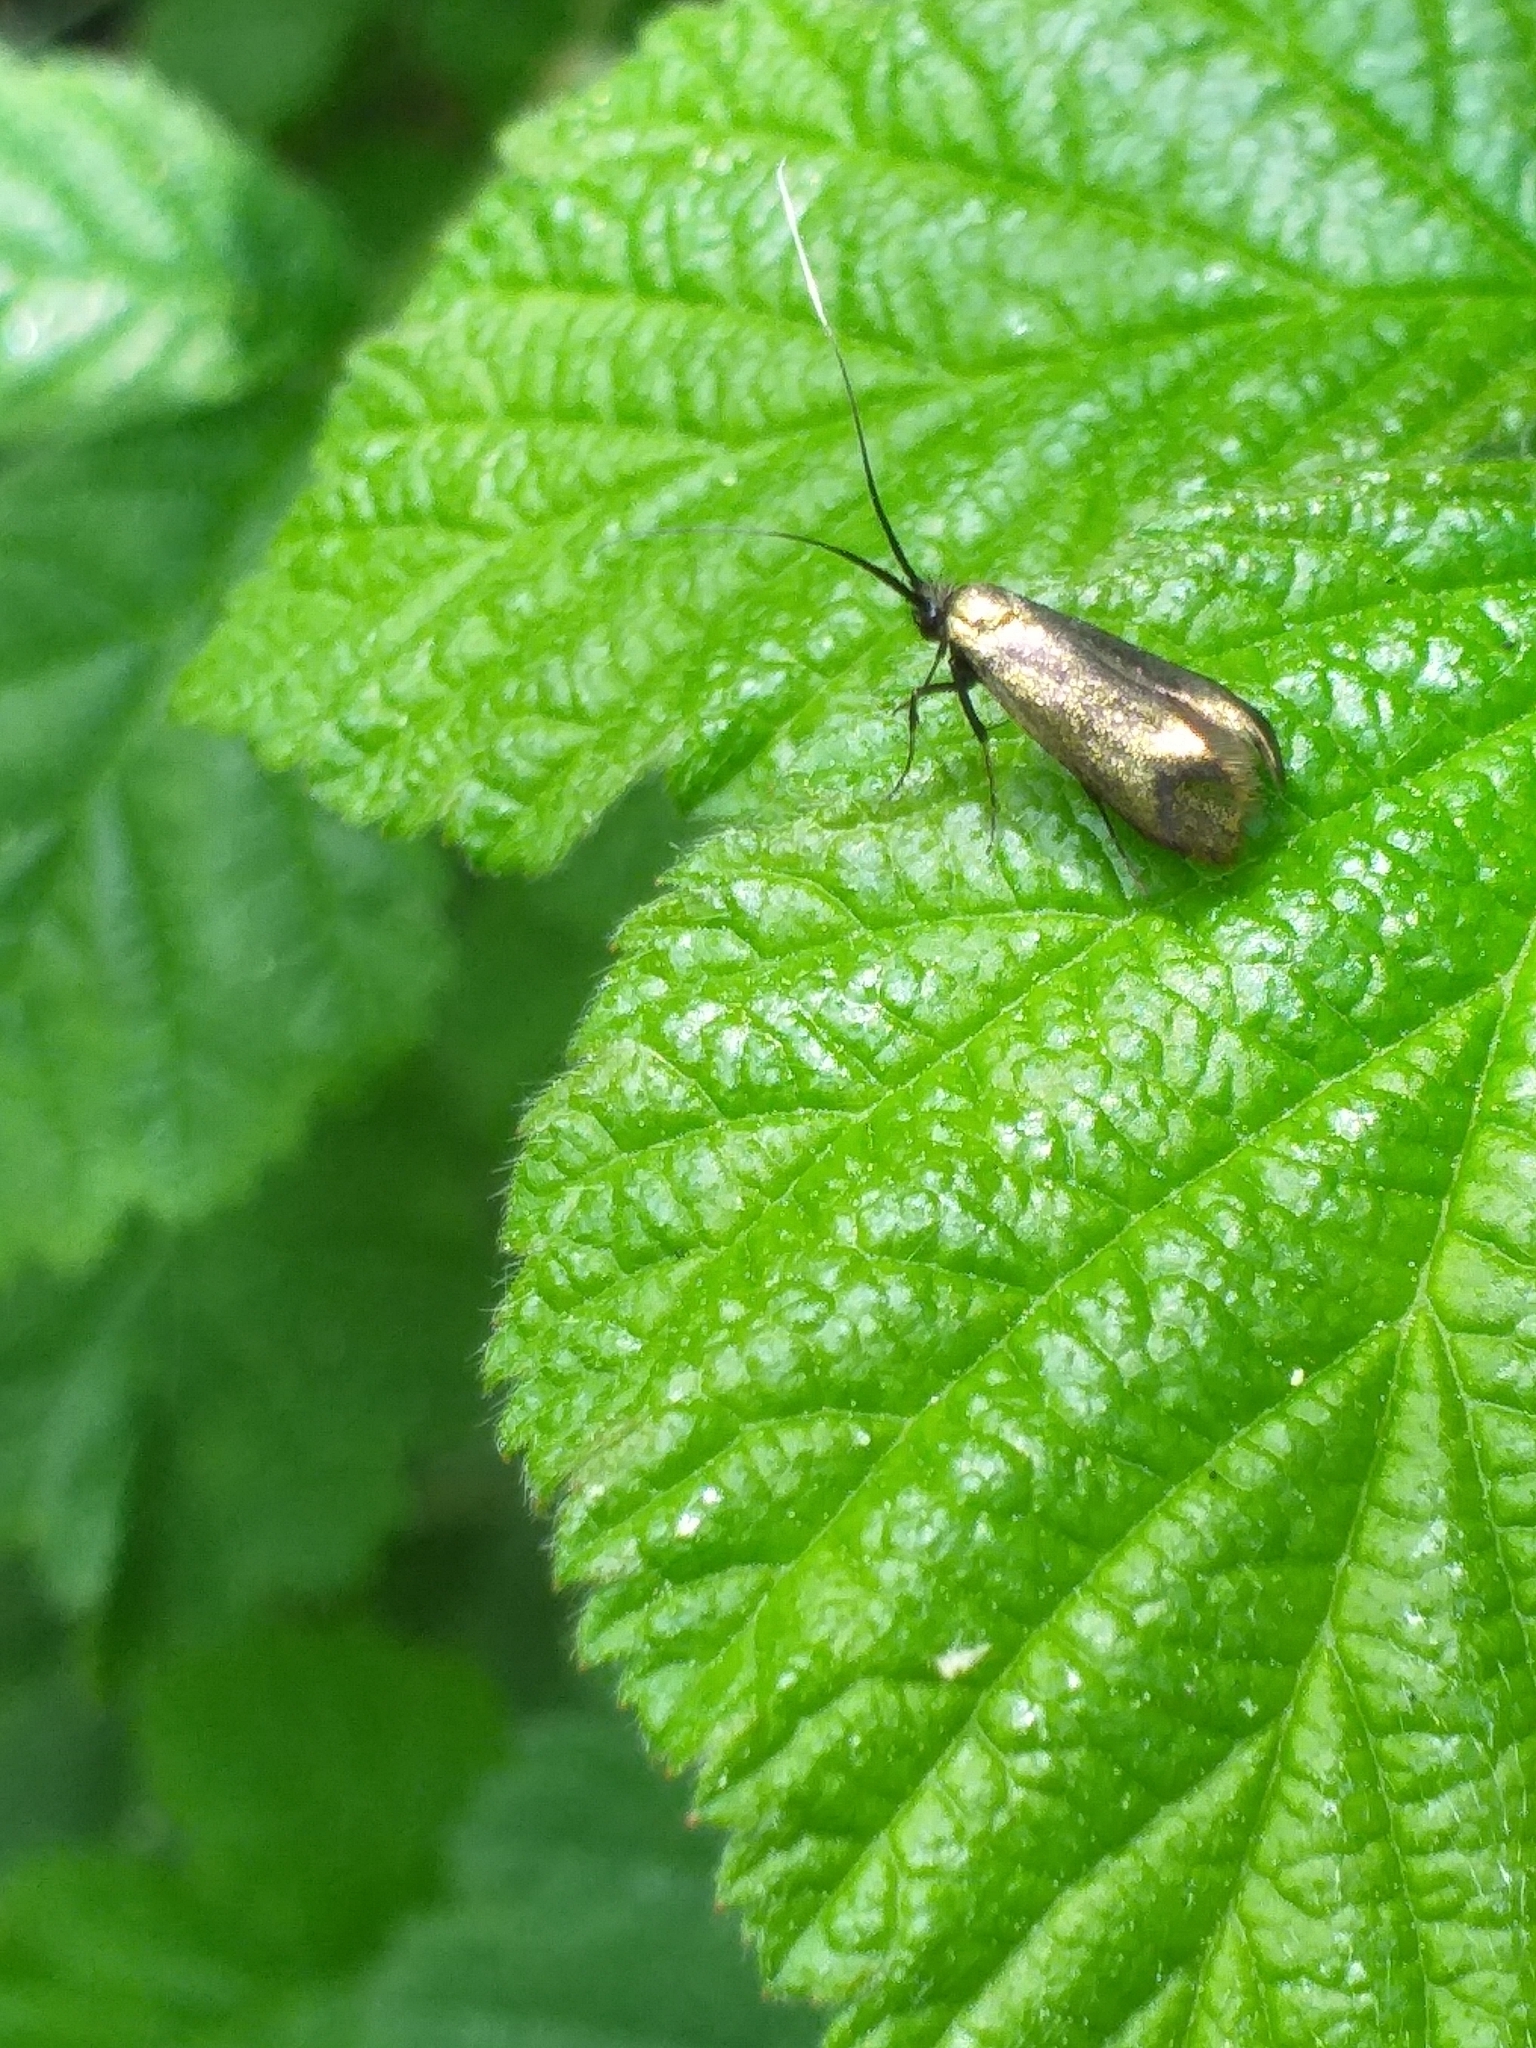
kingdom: Animalia
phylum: Arthropoda
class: Insecta
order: Lepidoptera
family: Adelidae
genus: Adela
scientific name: Adela viridella
